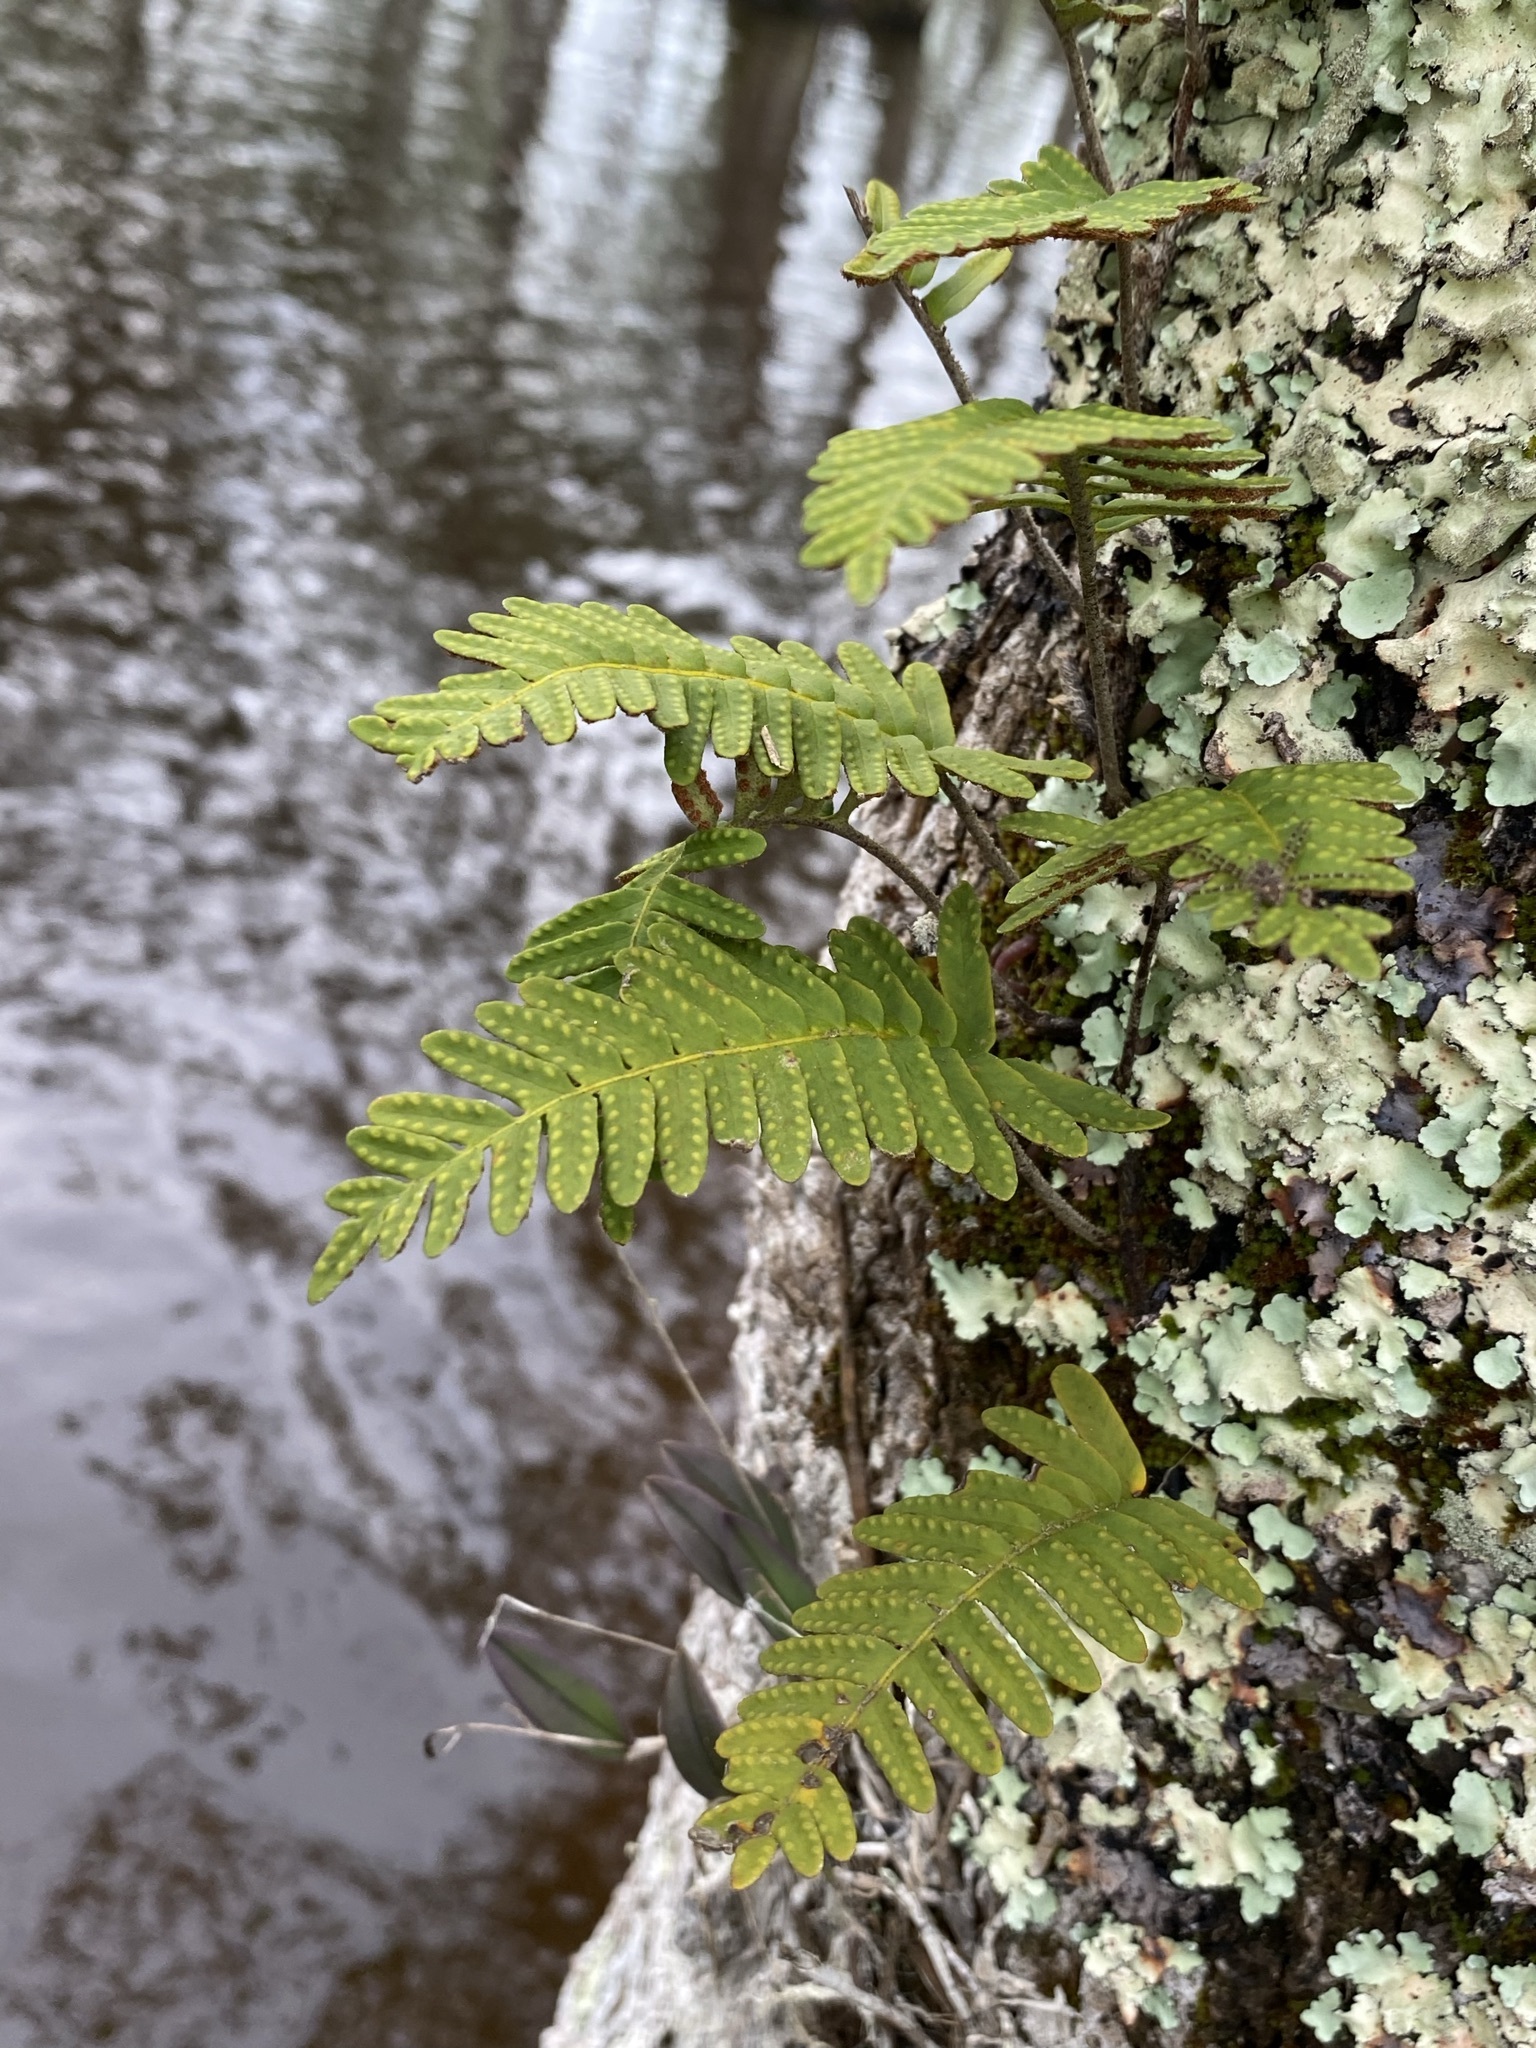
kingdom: Plantae
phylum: Tracheophyta
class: Polypodiopsida
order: Polypodiales
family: Polypodiaceae
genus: Pleopeltis
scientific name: Pleopeltis michauxiana
